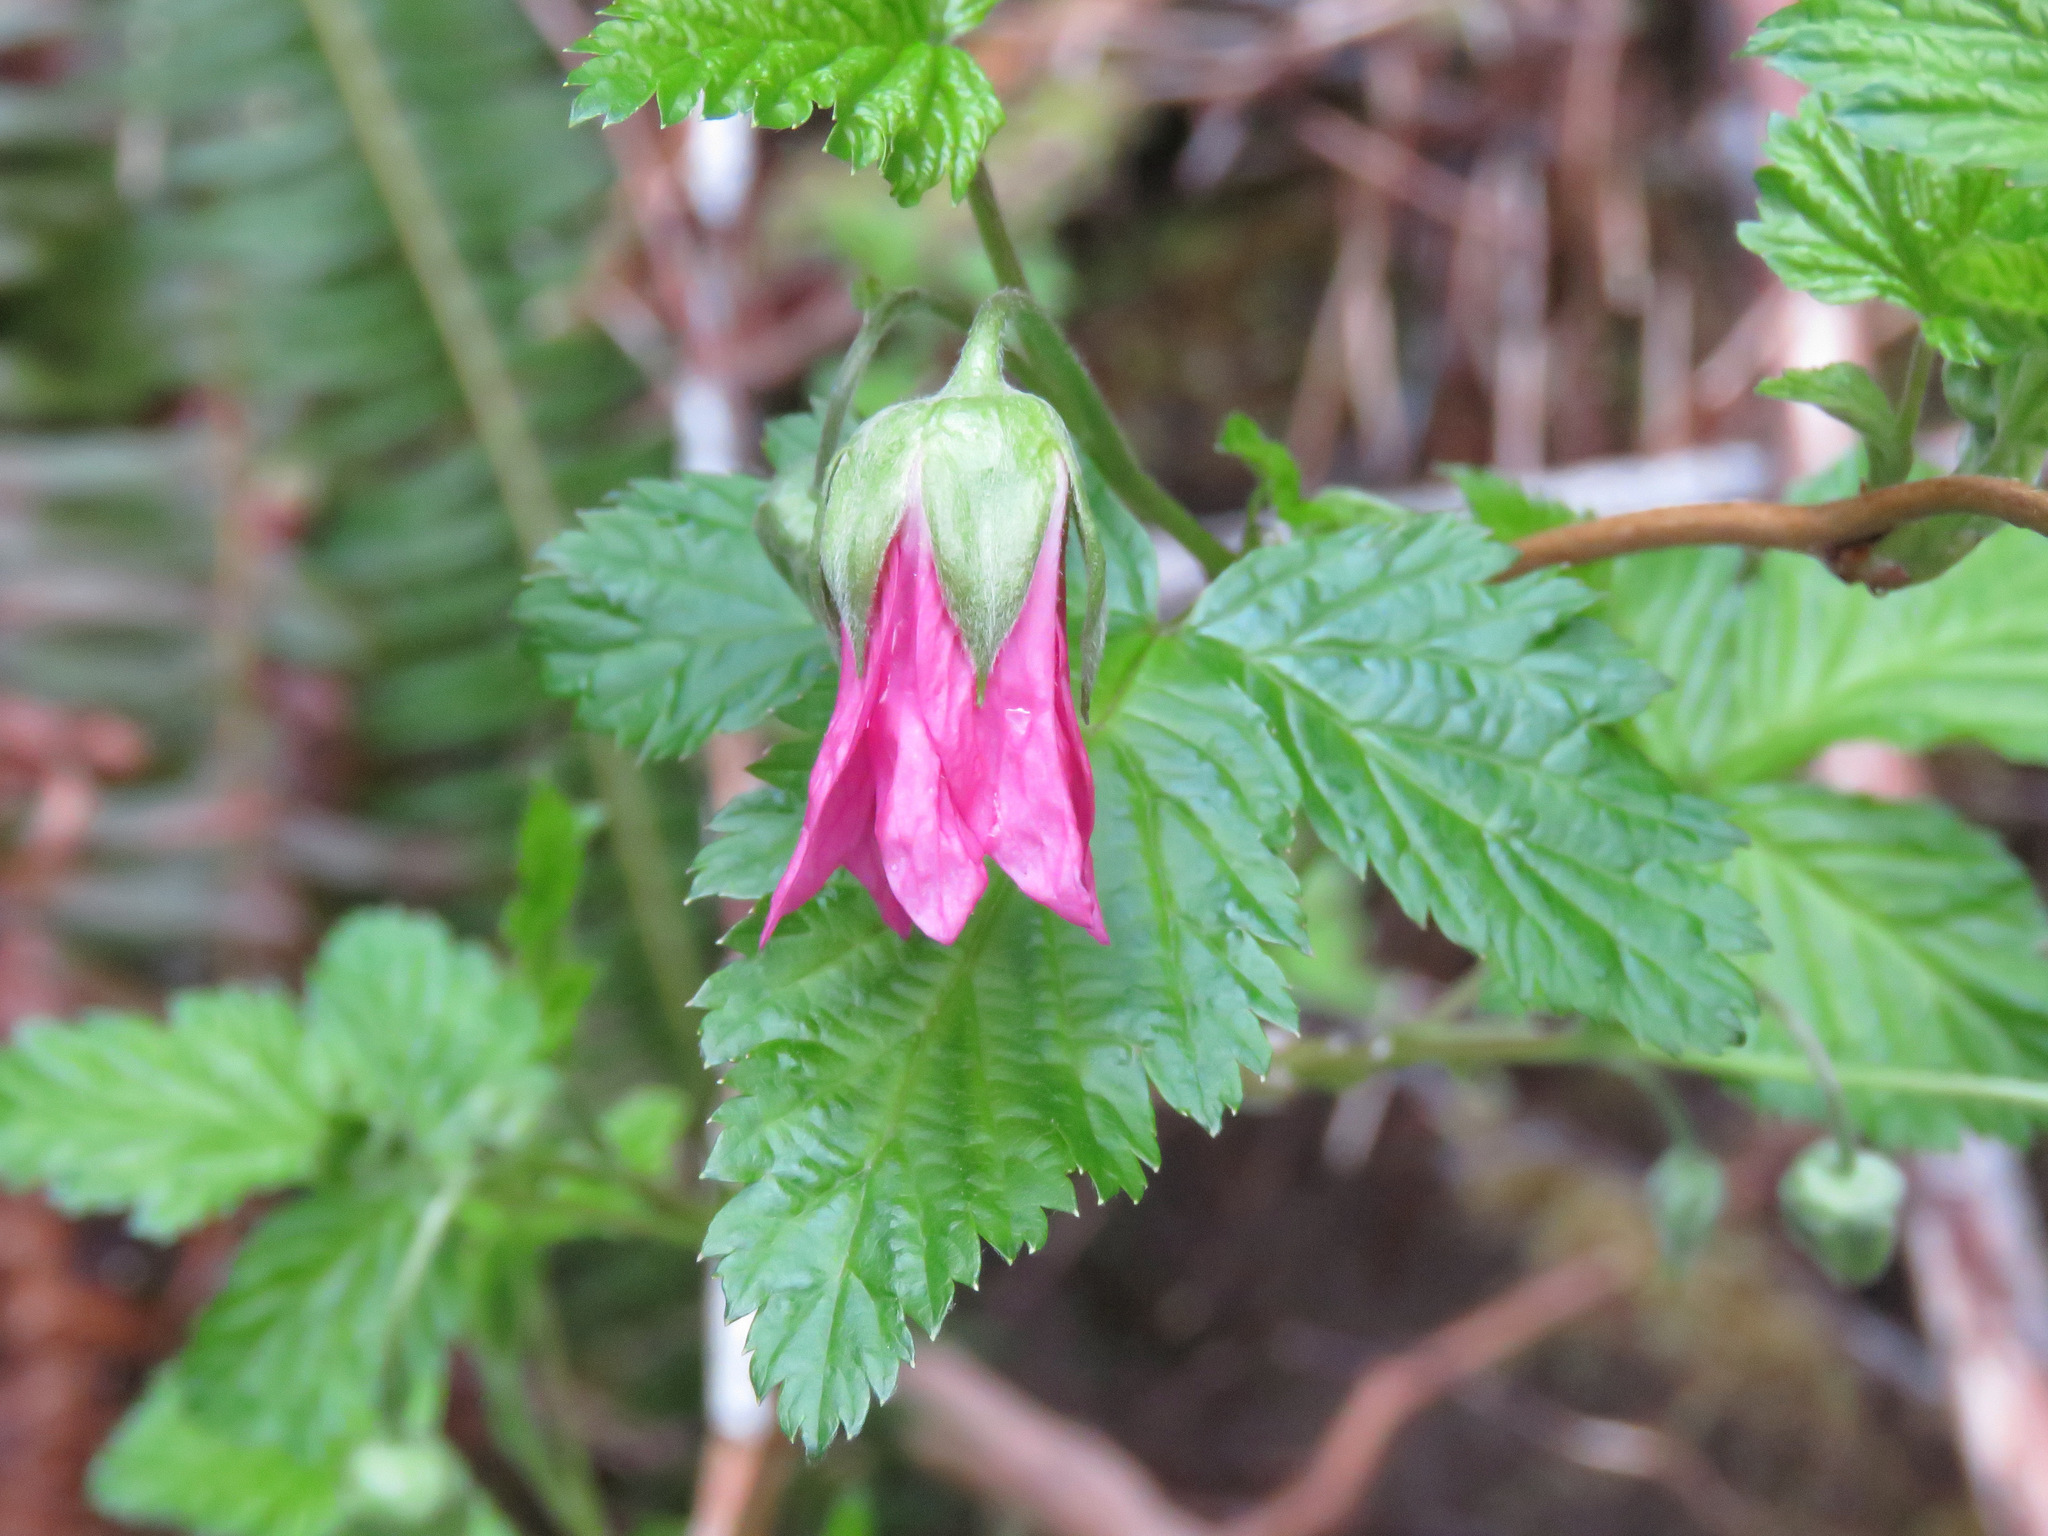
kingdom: Plantae
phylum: Tracheophyta
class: Magnoliopsida
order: Rosales
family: Rosaceae
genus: Rubus
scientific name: Rubus spectabilis
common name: Salmonberry
